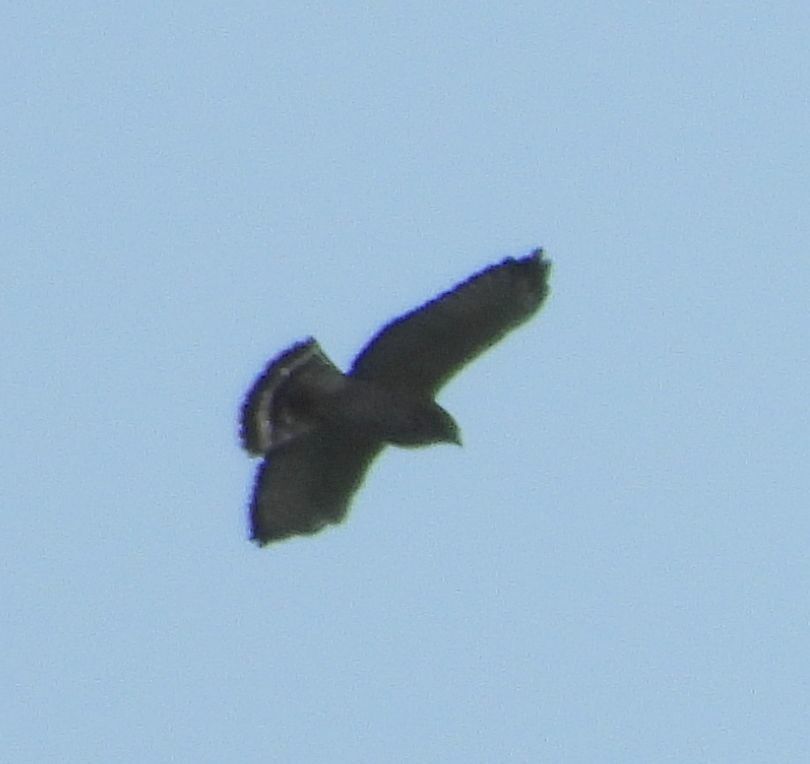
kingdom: Animalia
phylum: Chordata
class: Aves
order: Accipitriformes
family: Accipitridae
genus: Buteo
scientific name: Buteo platypterus
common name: Broad-winged hawk
